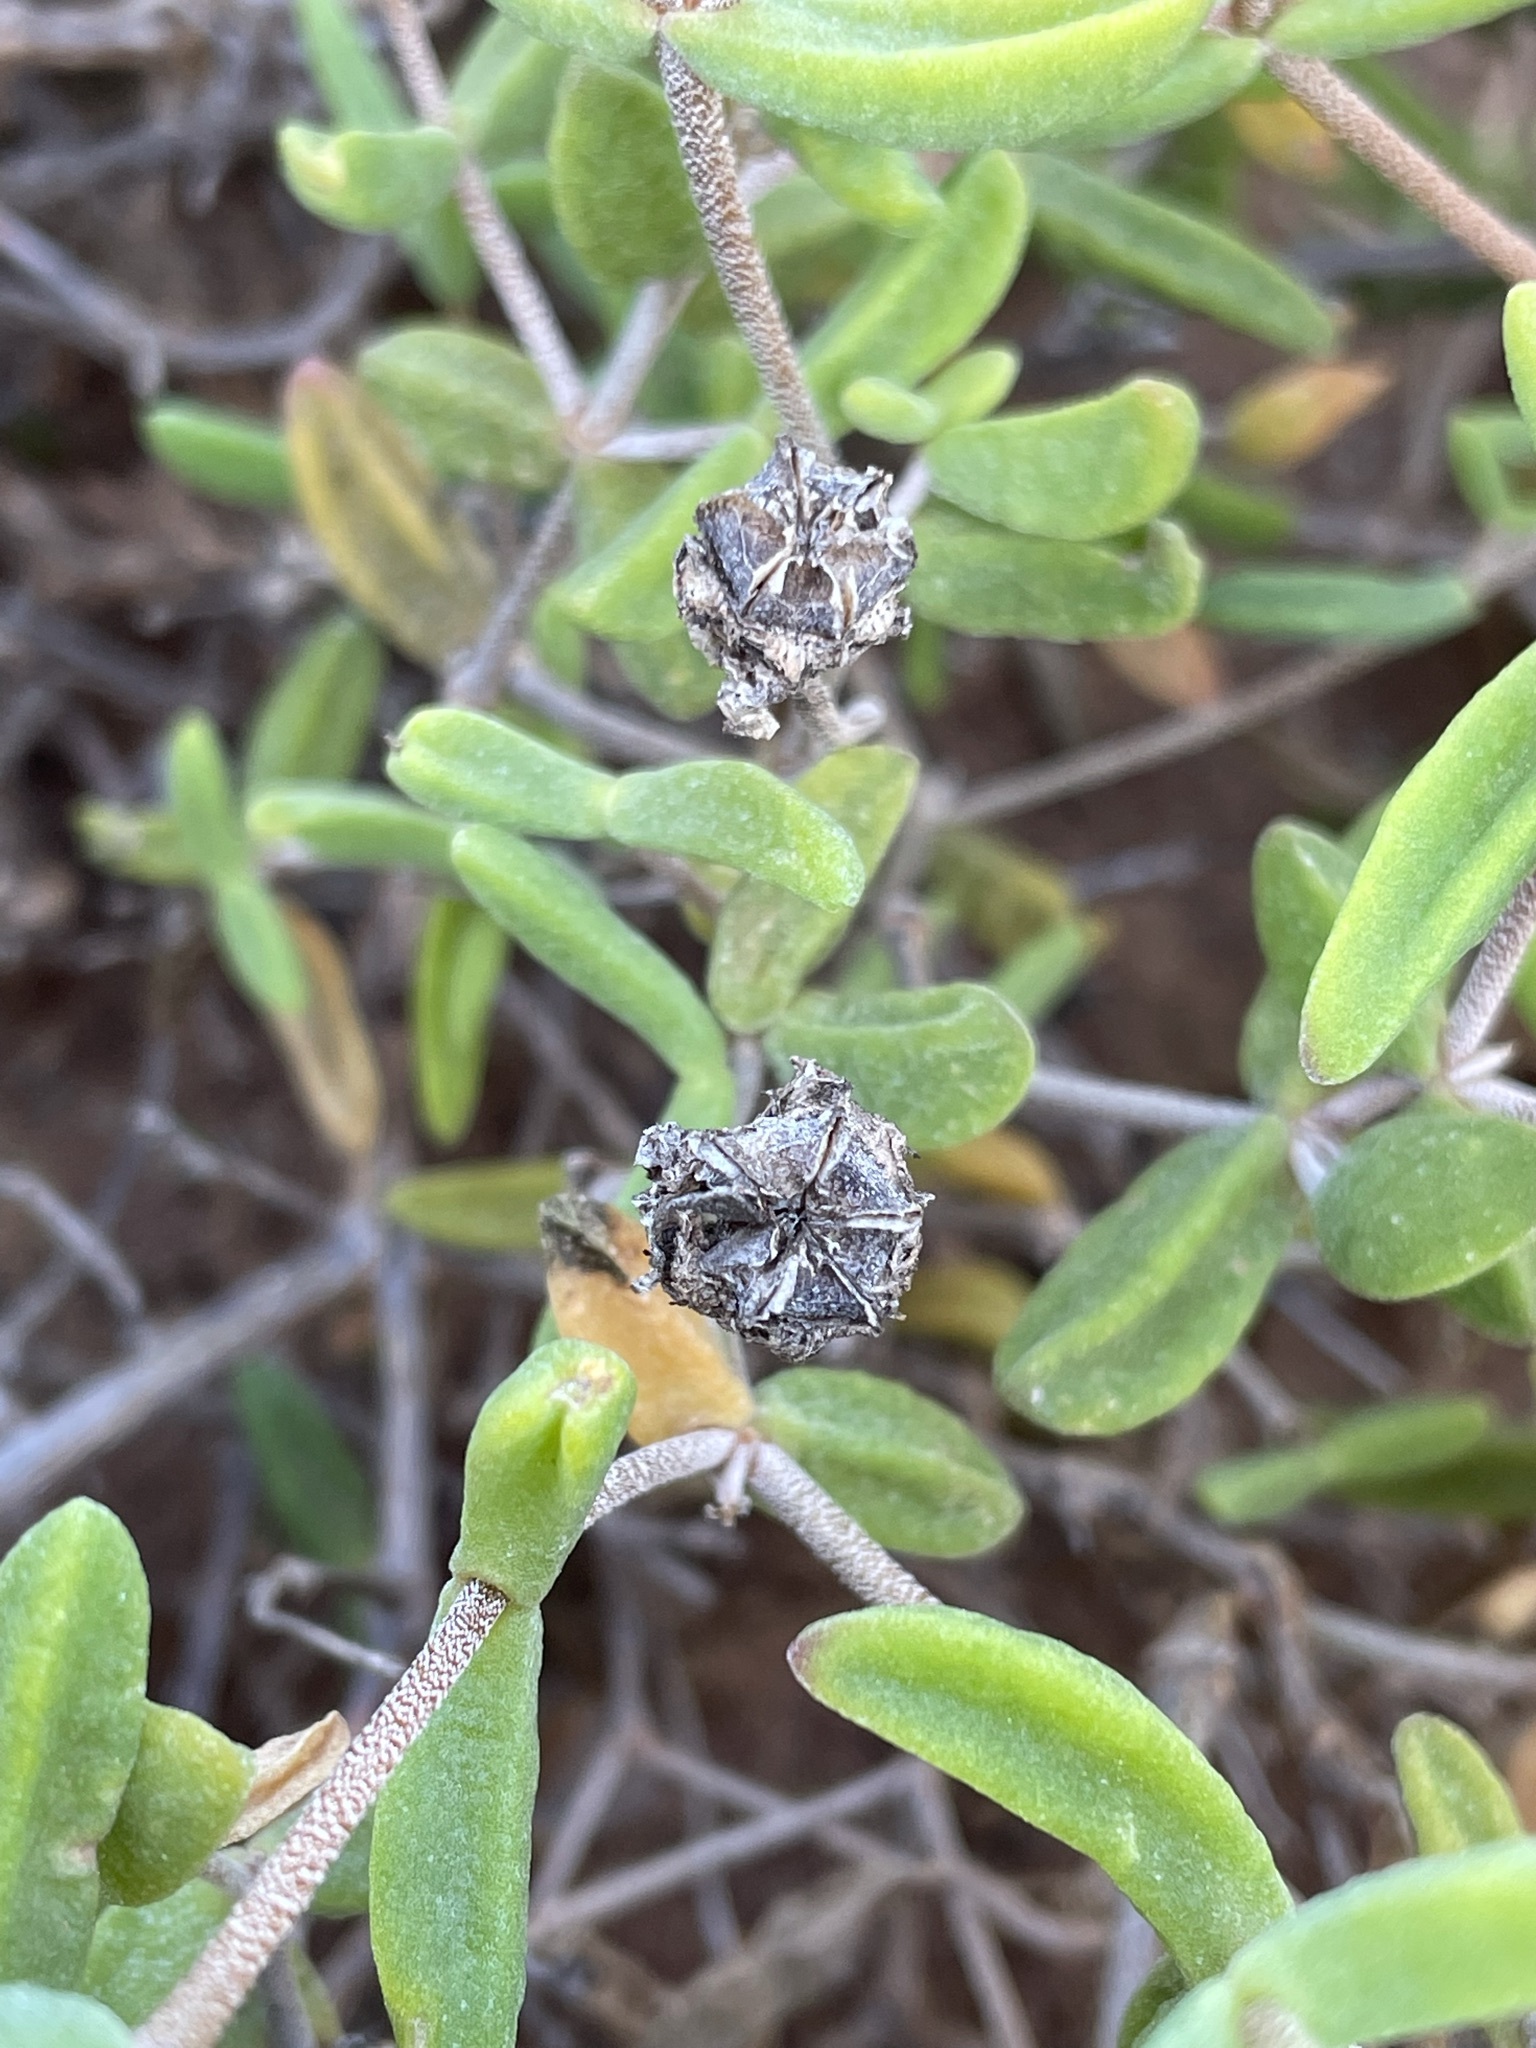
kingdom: Plantae
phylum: Tracheophyta
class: Magnoliopsida
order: Caryophyllales
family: Aizoaceae
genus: Drosanthemum
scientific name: Drosanthemum speciosum
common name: Royal dewflower
